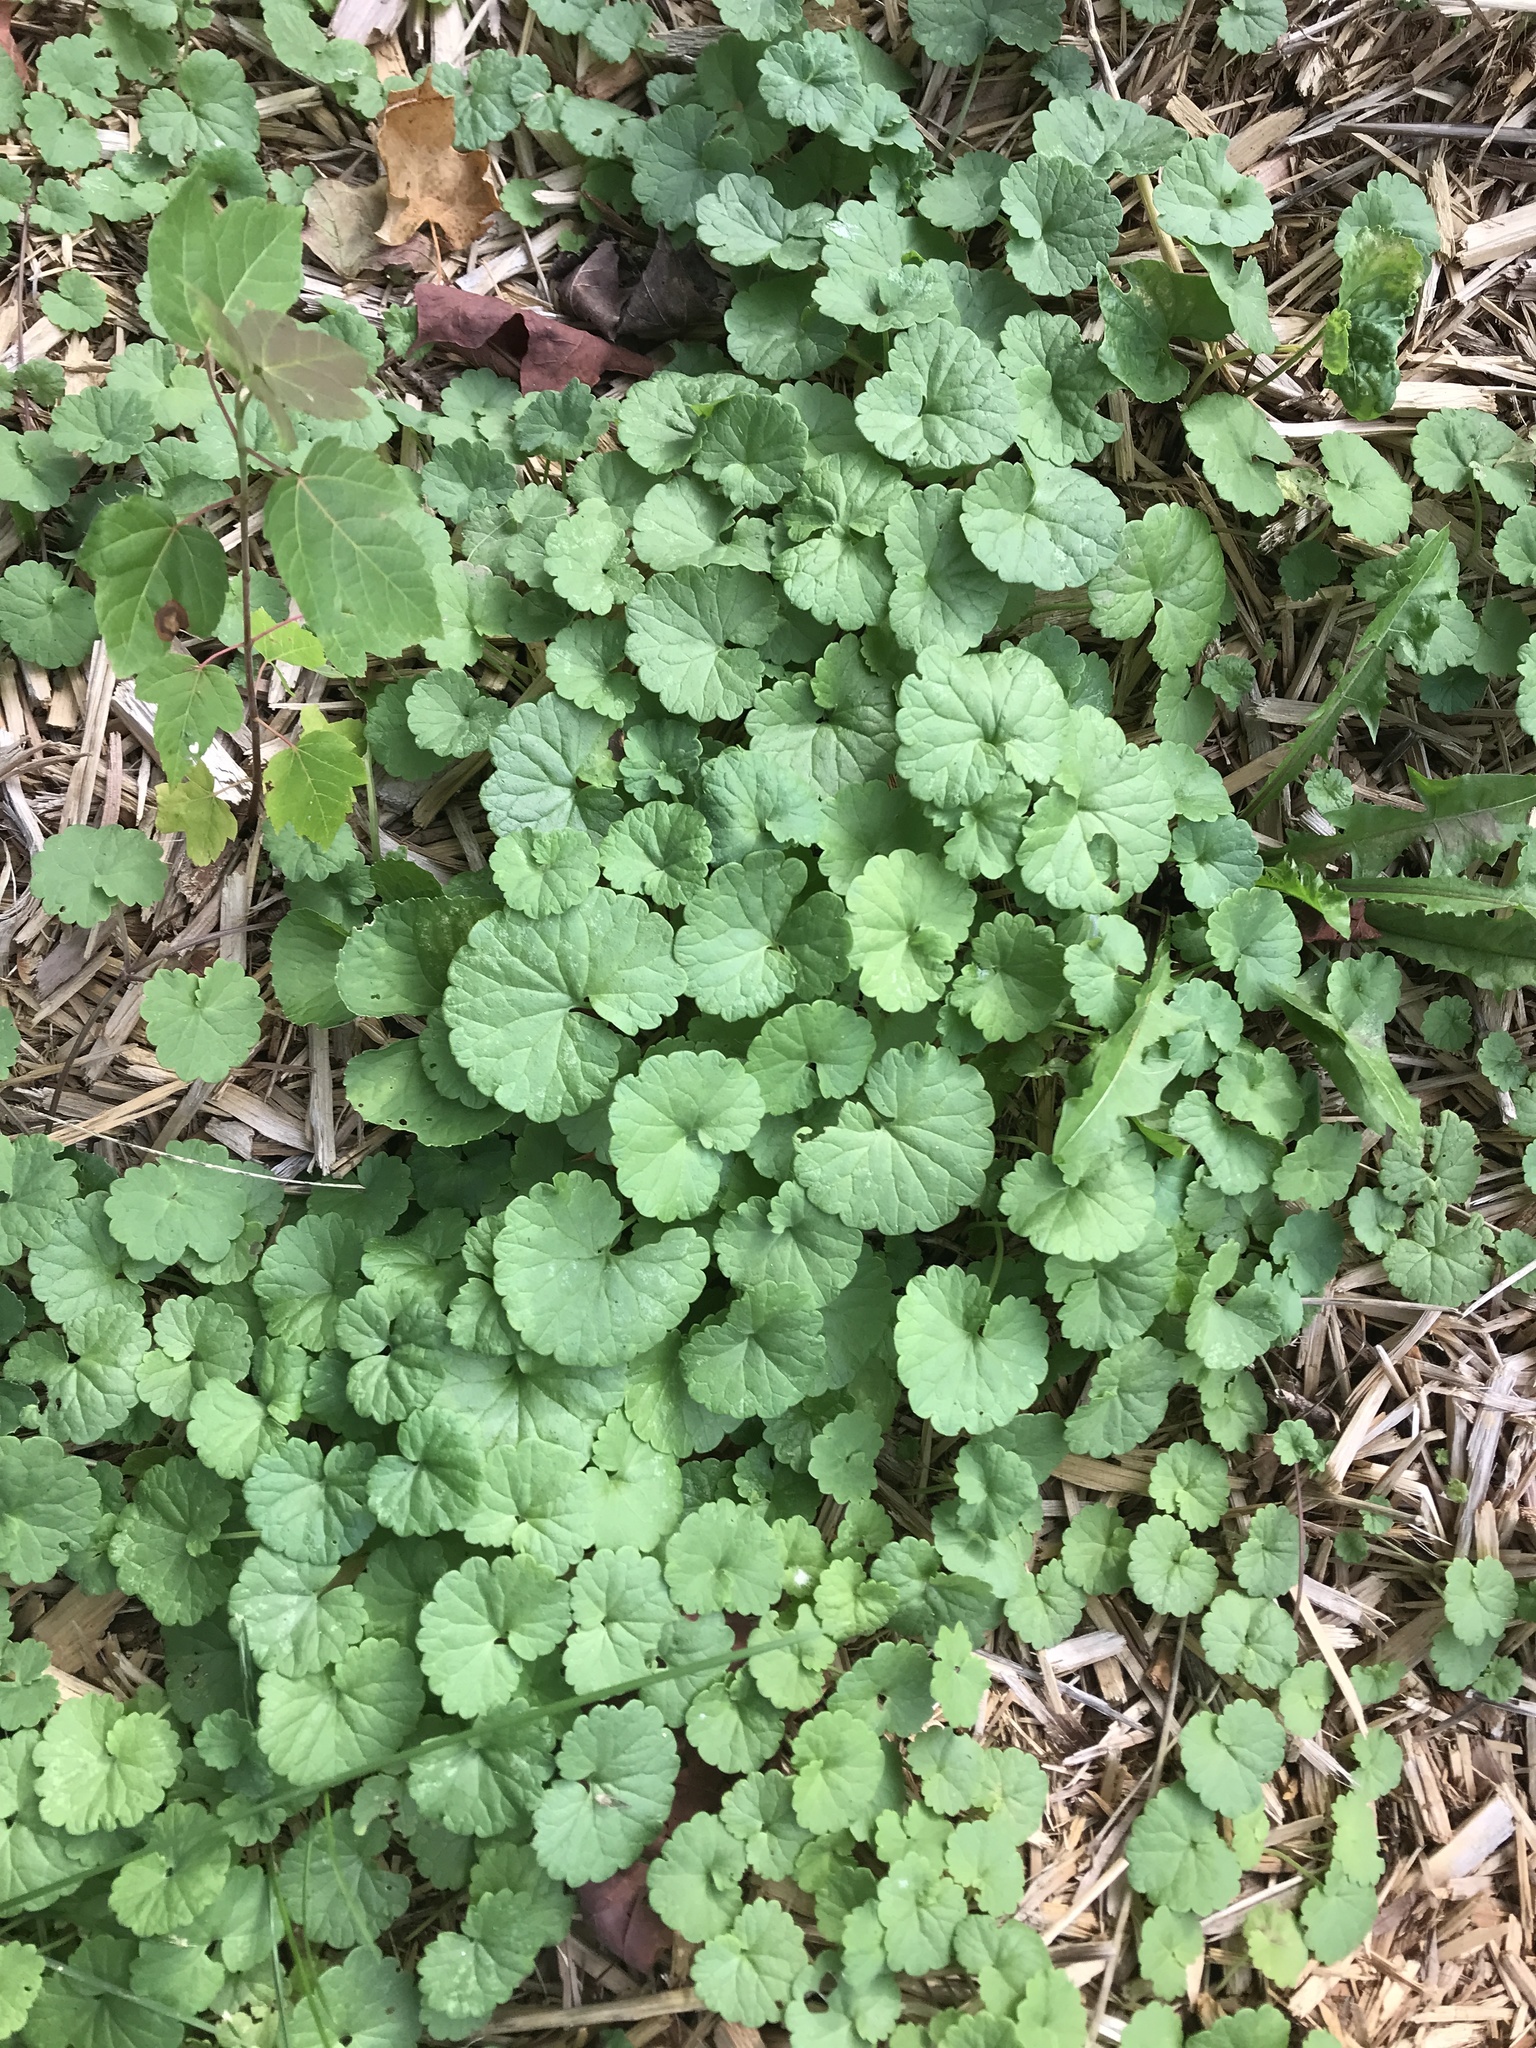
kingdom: Plantae
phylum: Tracheophyta
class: Magnoliopsida
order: Lamiales
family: Lamiaceae
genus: Glechoma
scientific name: Glechoma hederacea
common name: Ground ivy
